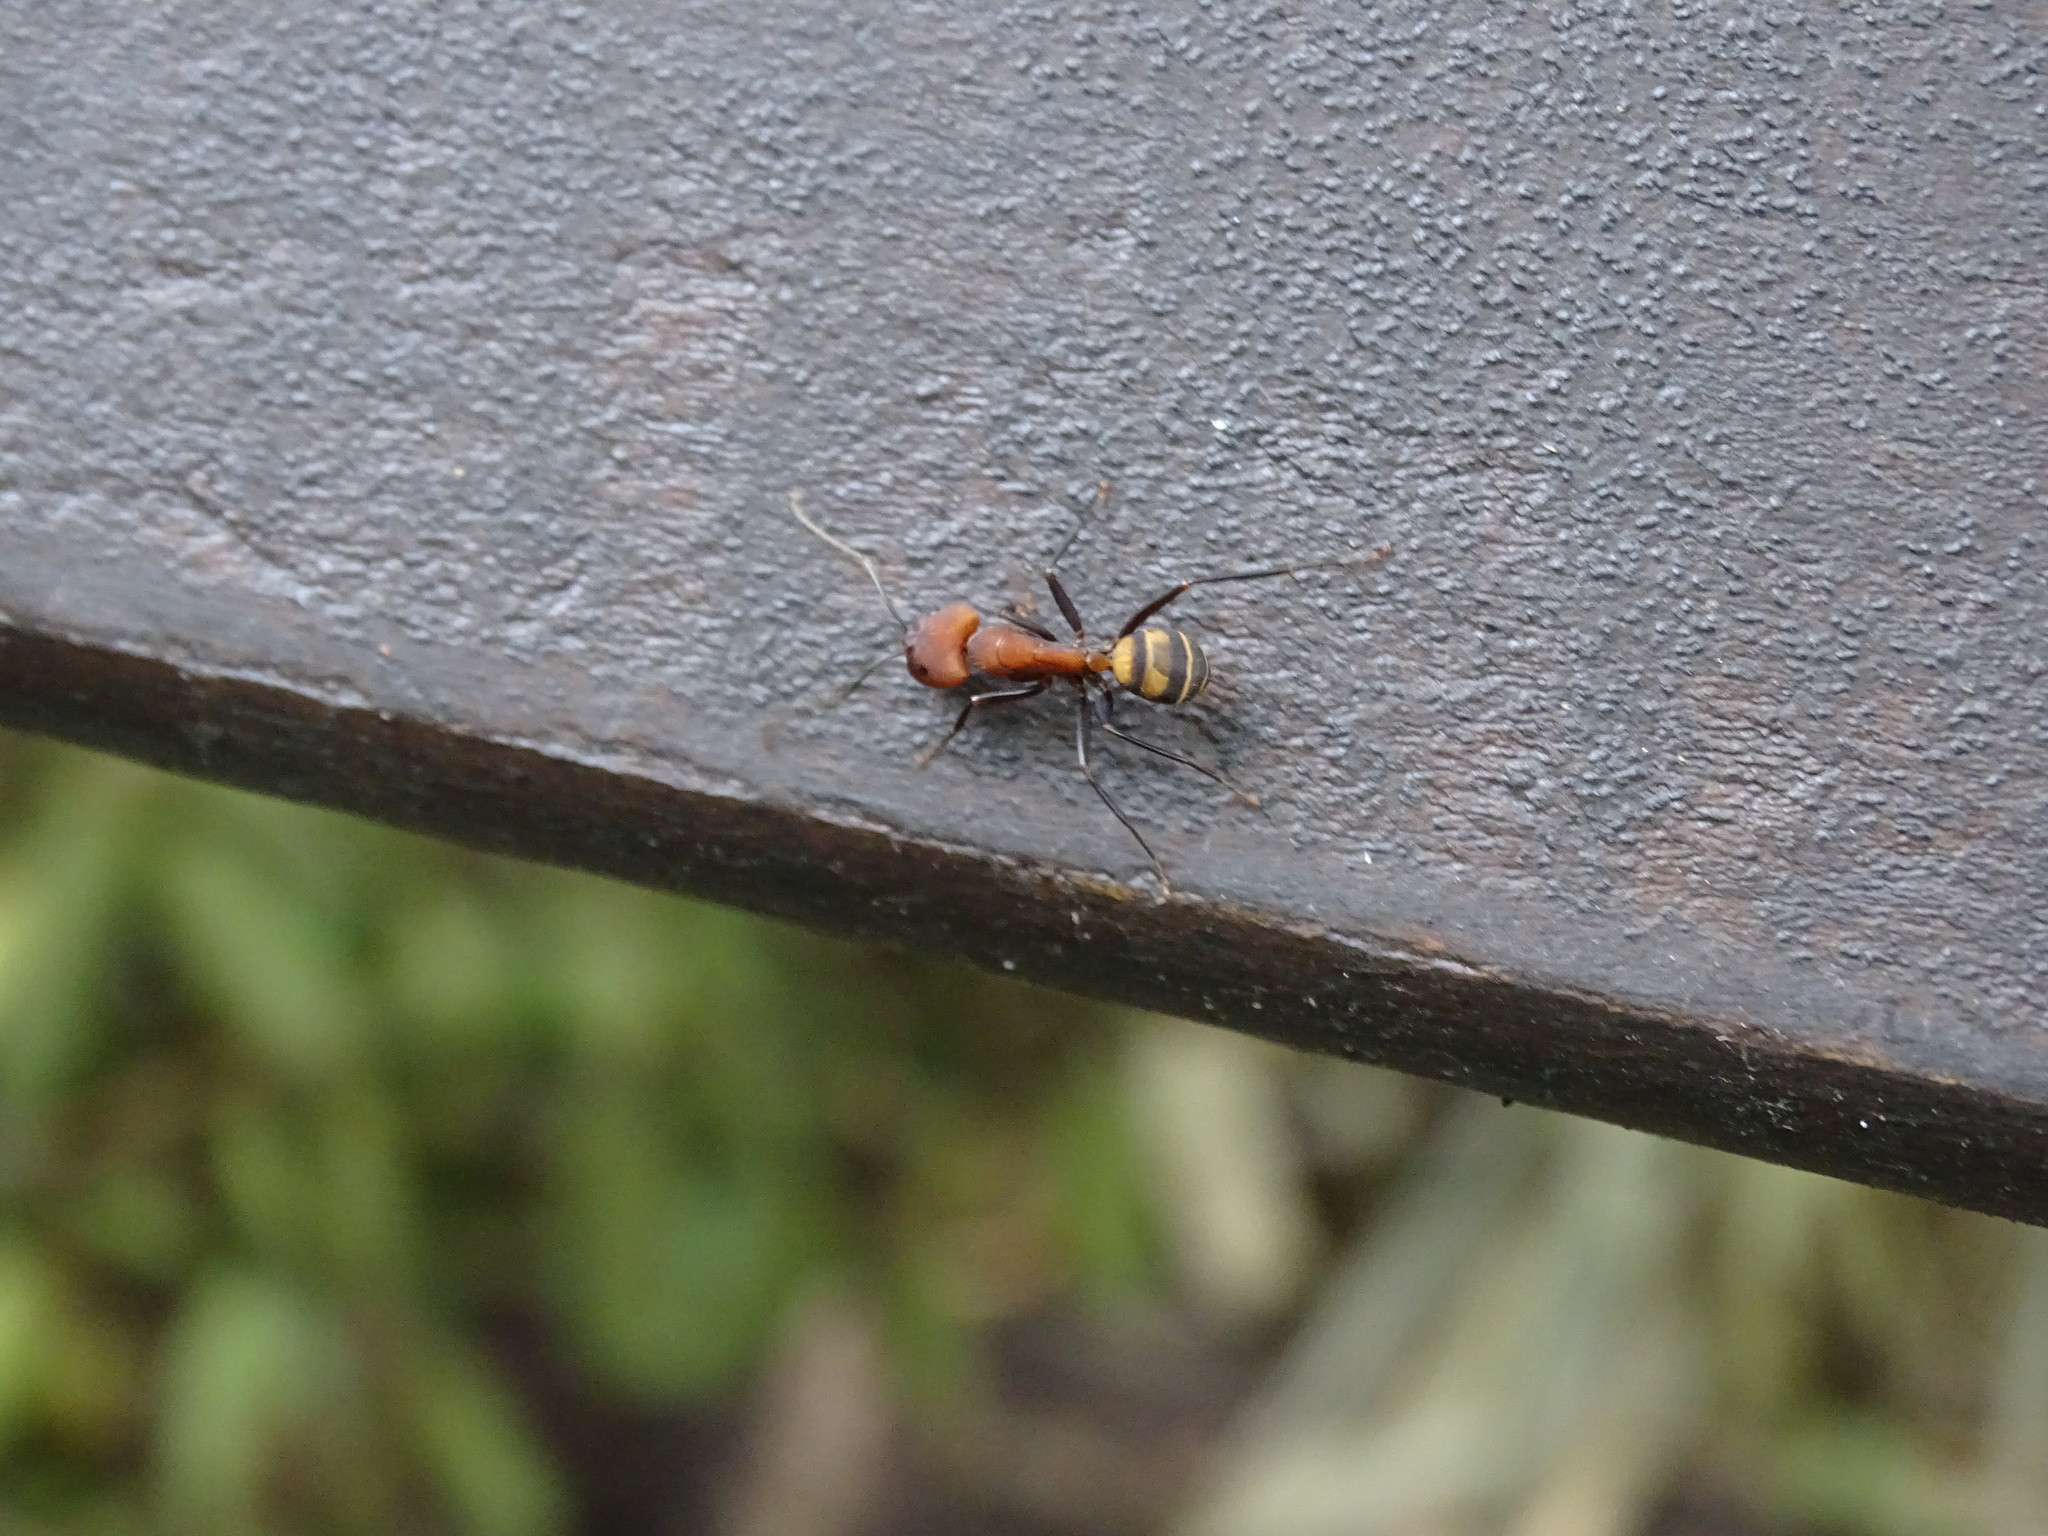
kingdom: Animalia
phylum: Arthropoda
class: Insecta
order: Hymenoptera
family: Formicidae
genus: Camponotus
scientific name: Camponotus habereri
